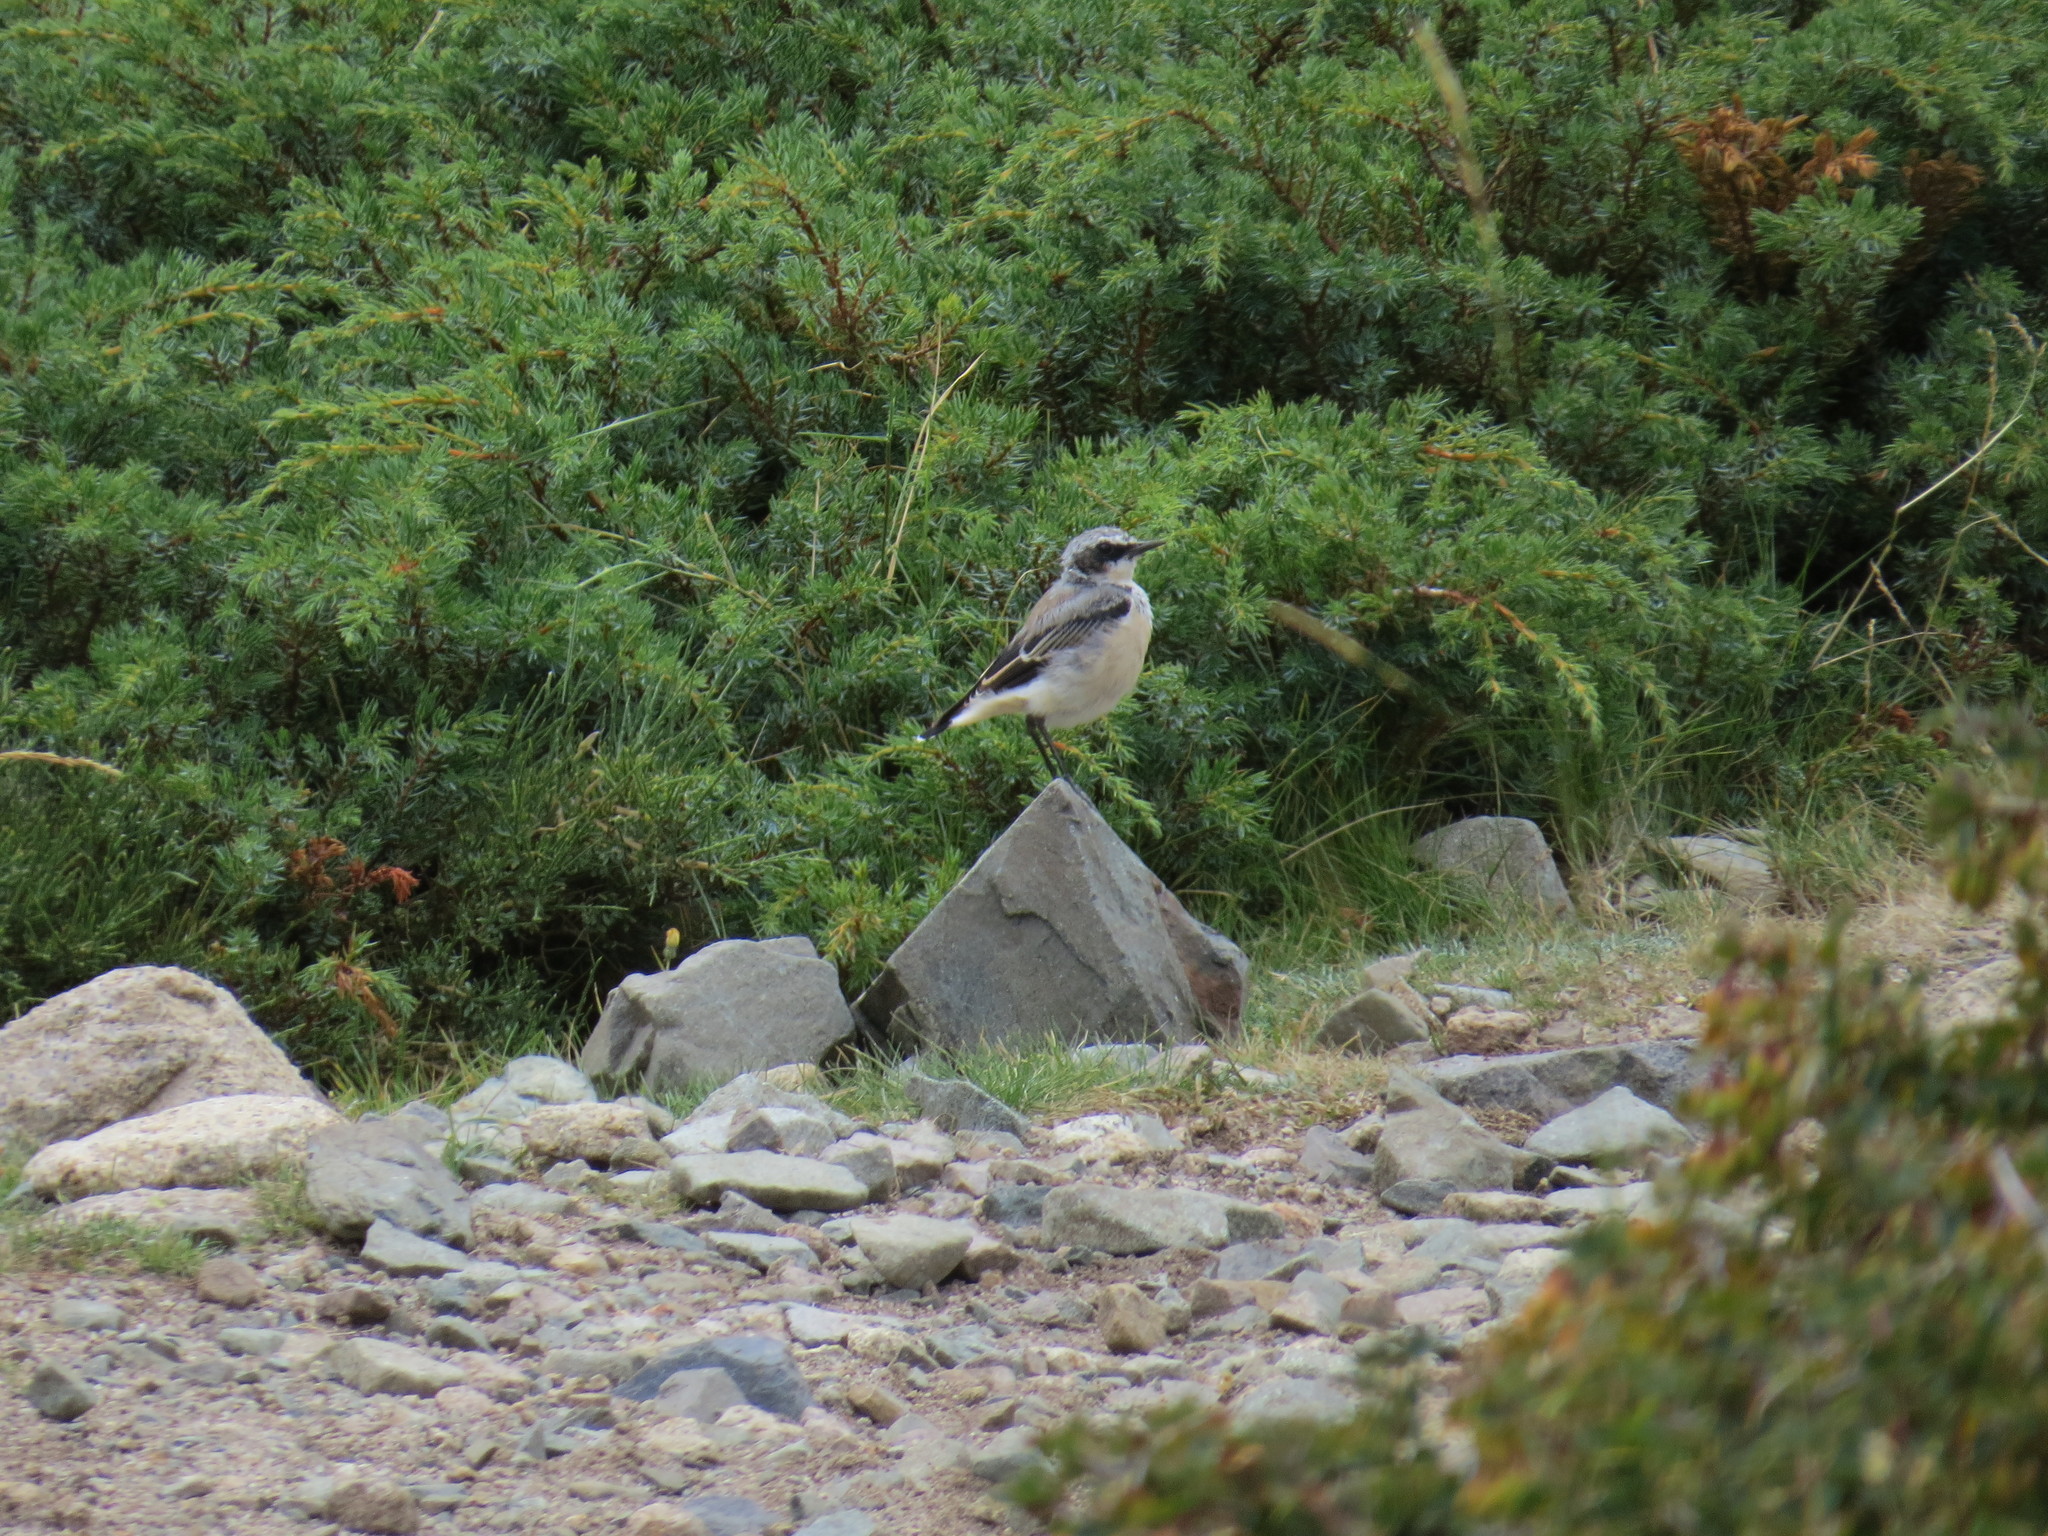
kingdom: Animalia
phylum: Chordata
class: Aves
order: Passeriformes
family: Muscicapidae
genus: Oenanthe
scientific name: Oenanthe oenanthe
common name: Northern wheatear
